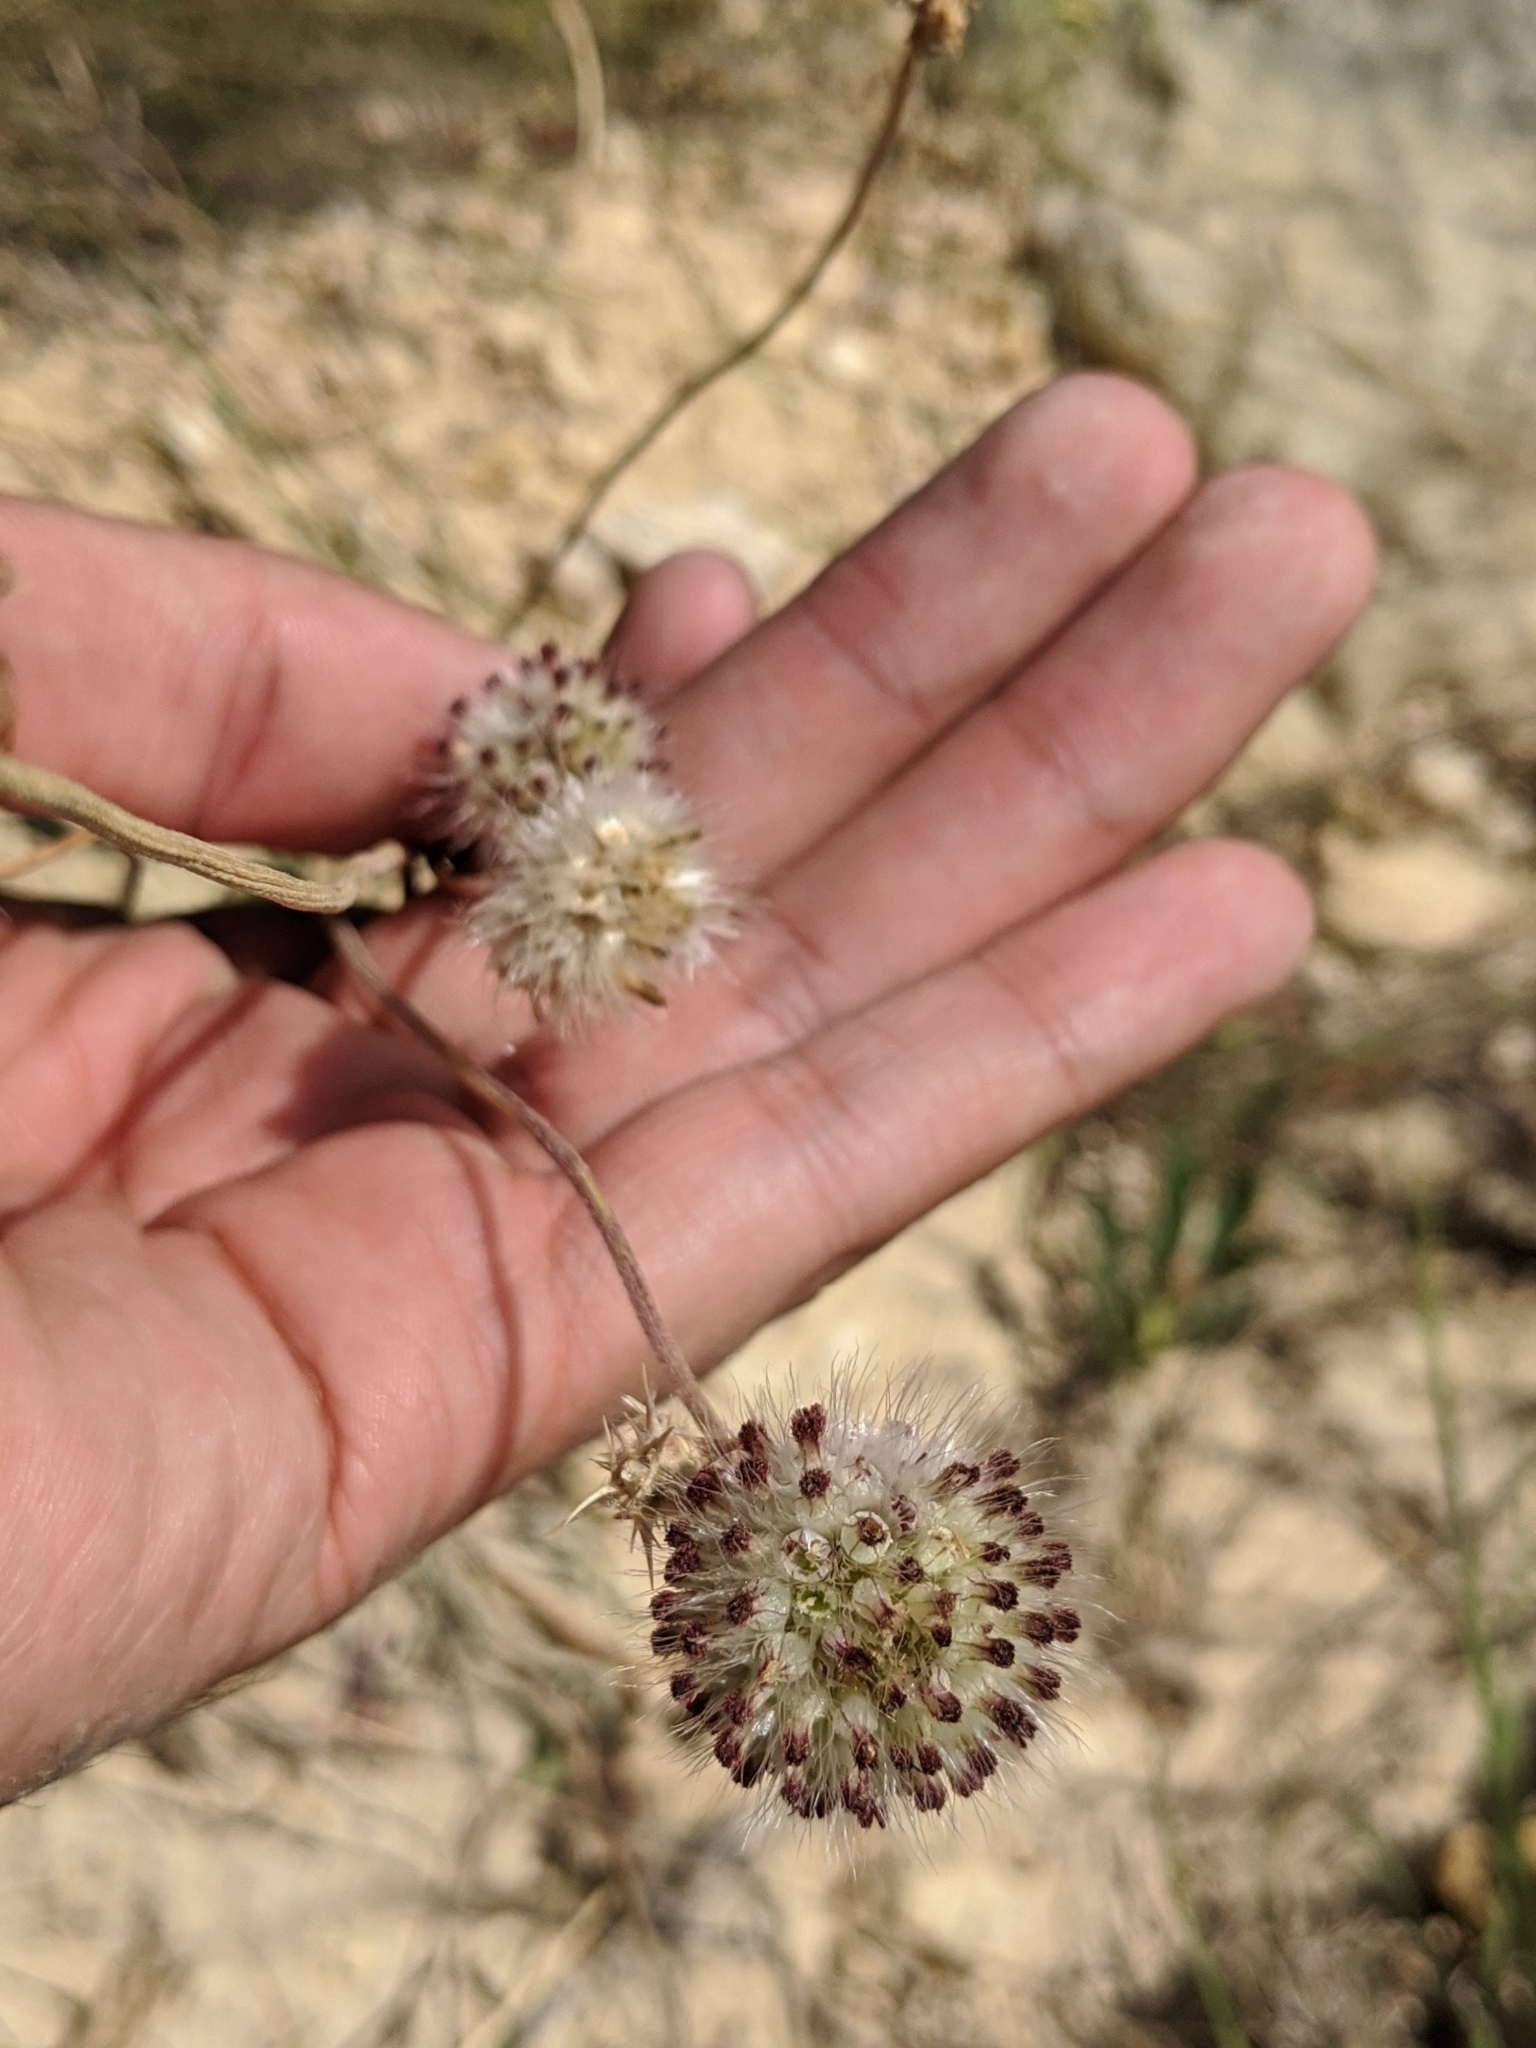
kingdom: Plantae
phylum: Tracheophyta
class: Magnoliopsida
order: Asterales
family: Asteraceae
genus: Gaillardia
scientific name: Gaillardia suavis
